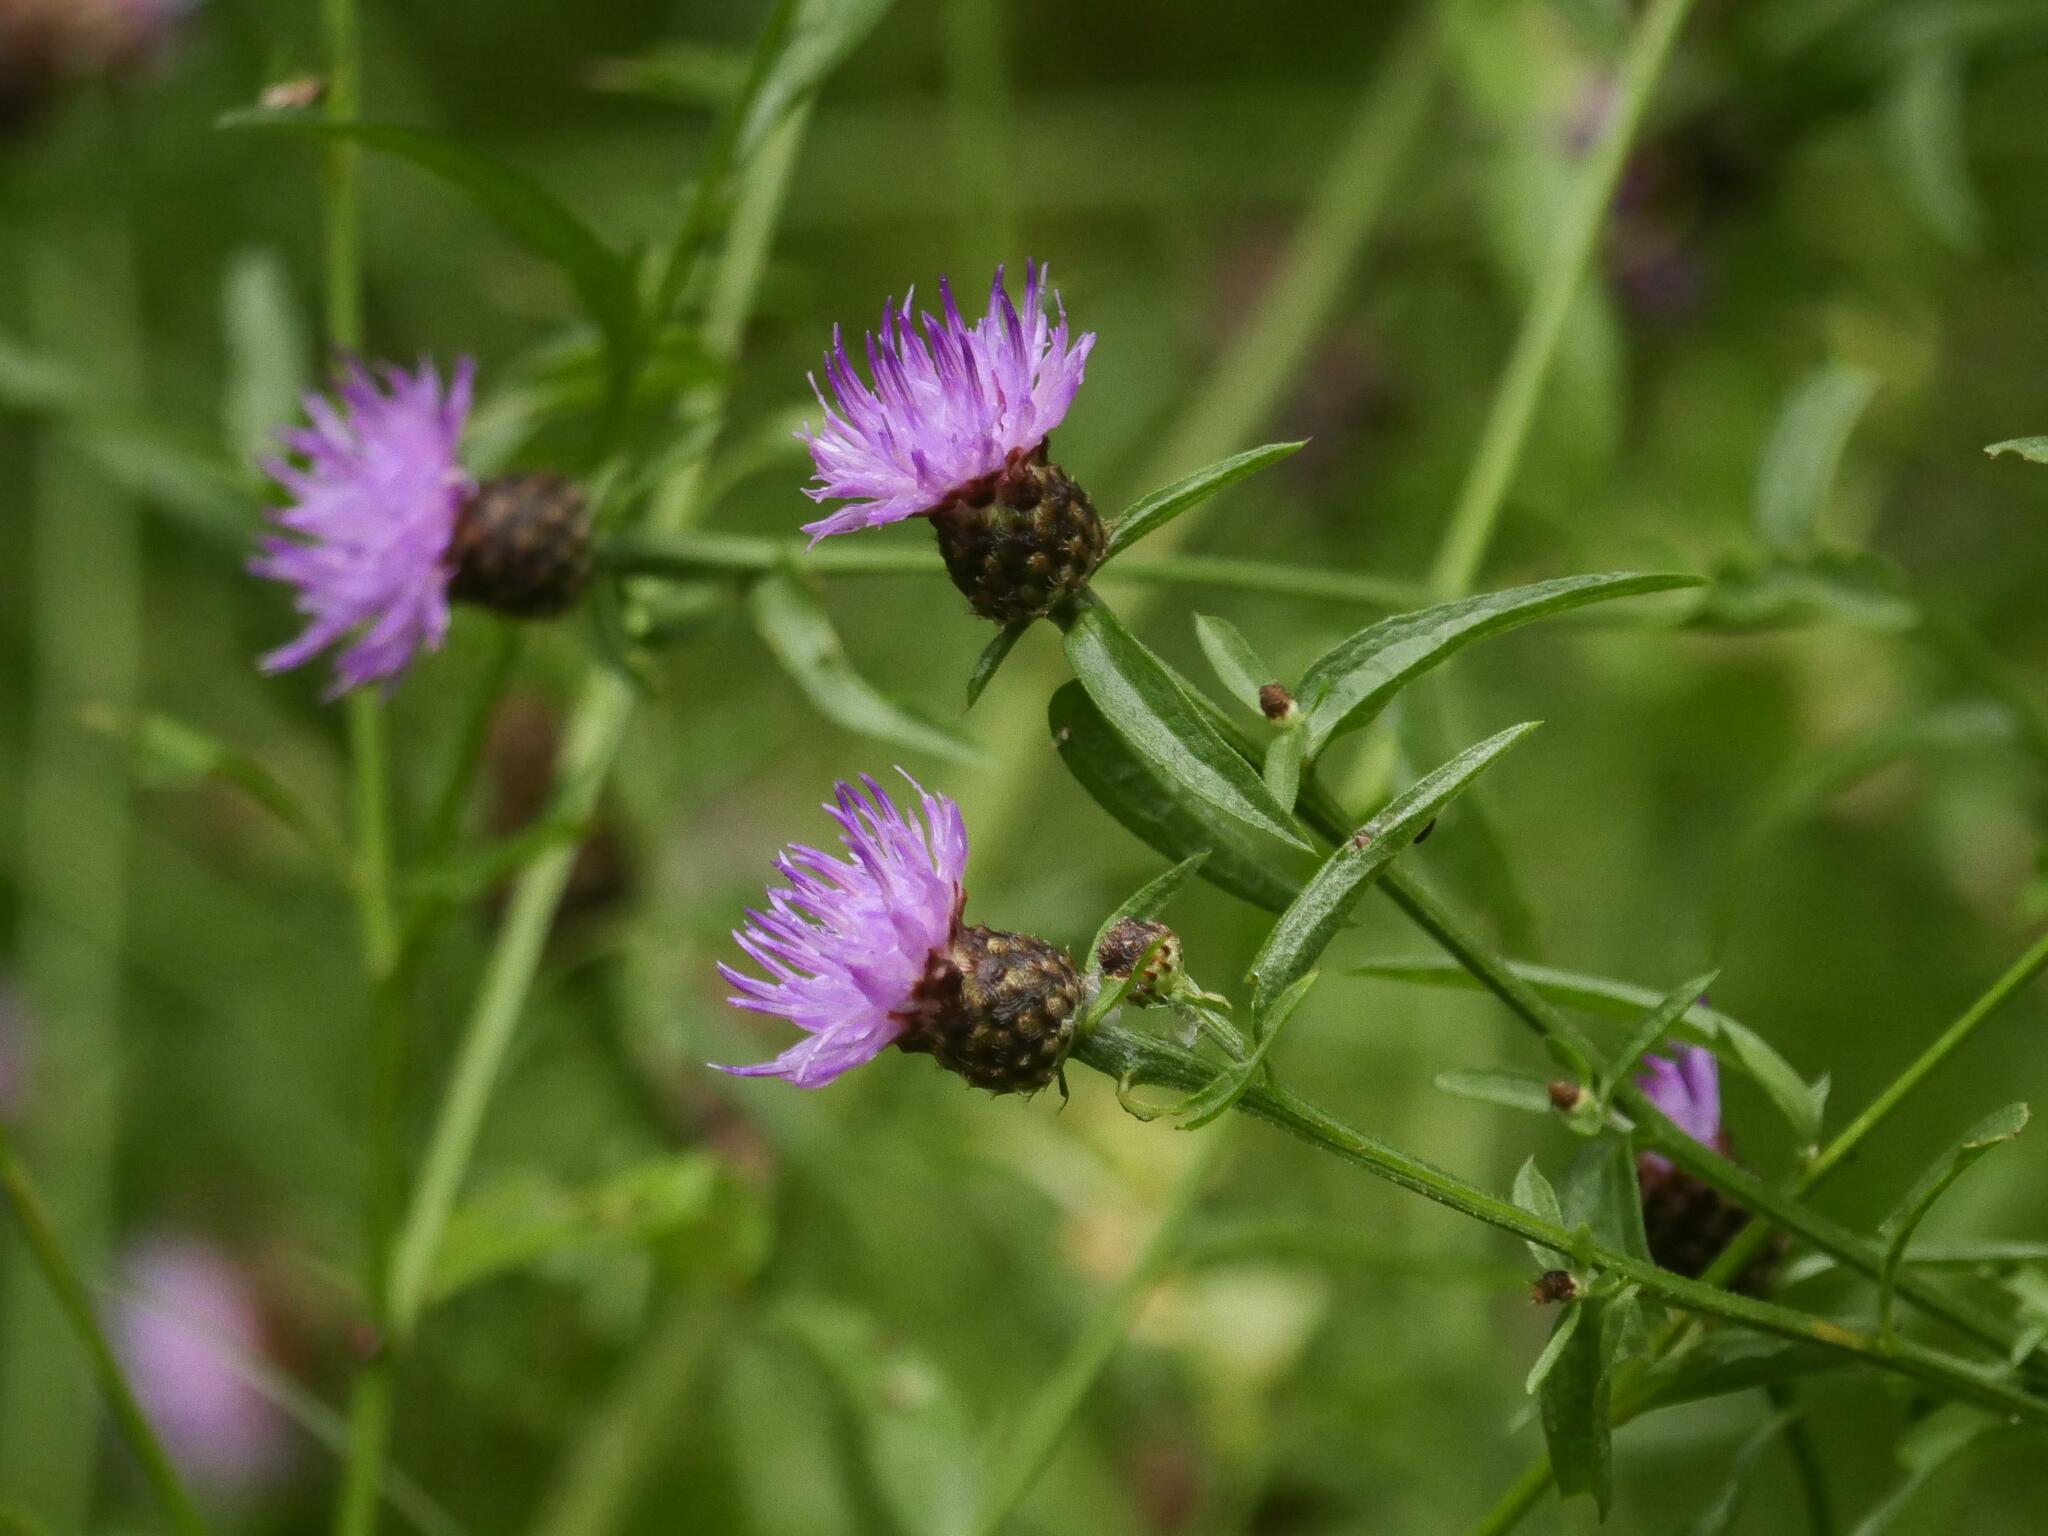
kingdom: Plantae
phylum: Tracheophyta
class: Magnoliopsida
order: Asterales
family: Asteraceae
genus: Centaurea
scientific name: Centaurea nigra
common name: Lesser knapweed
